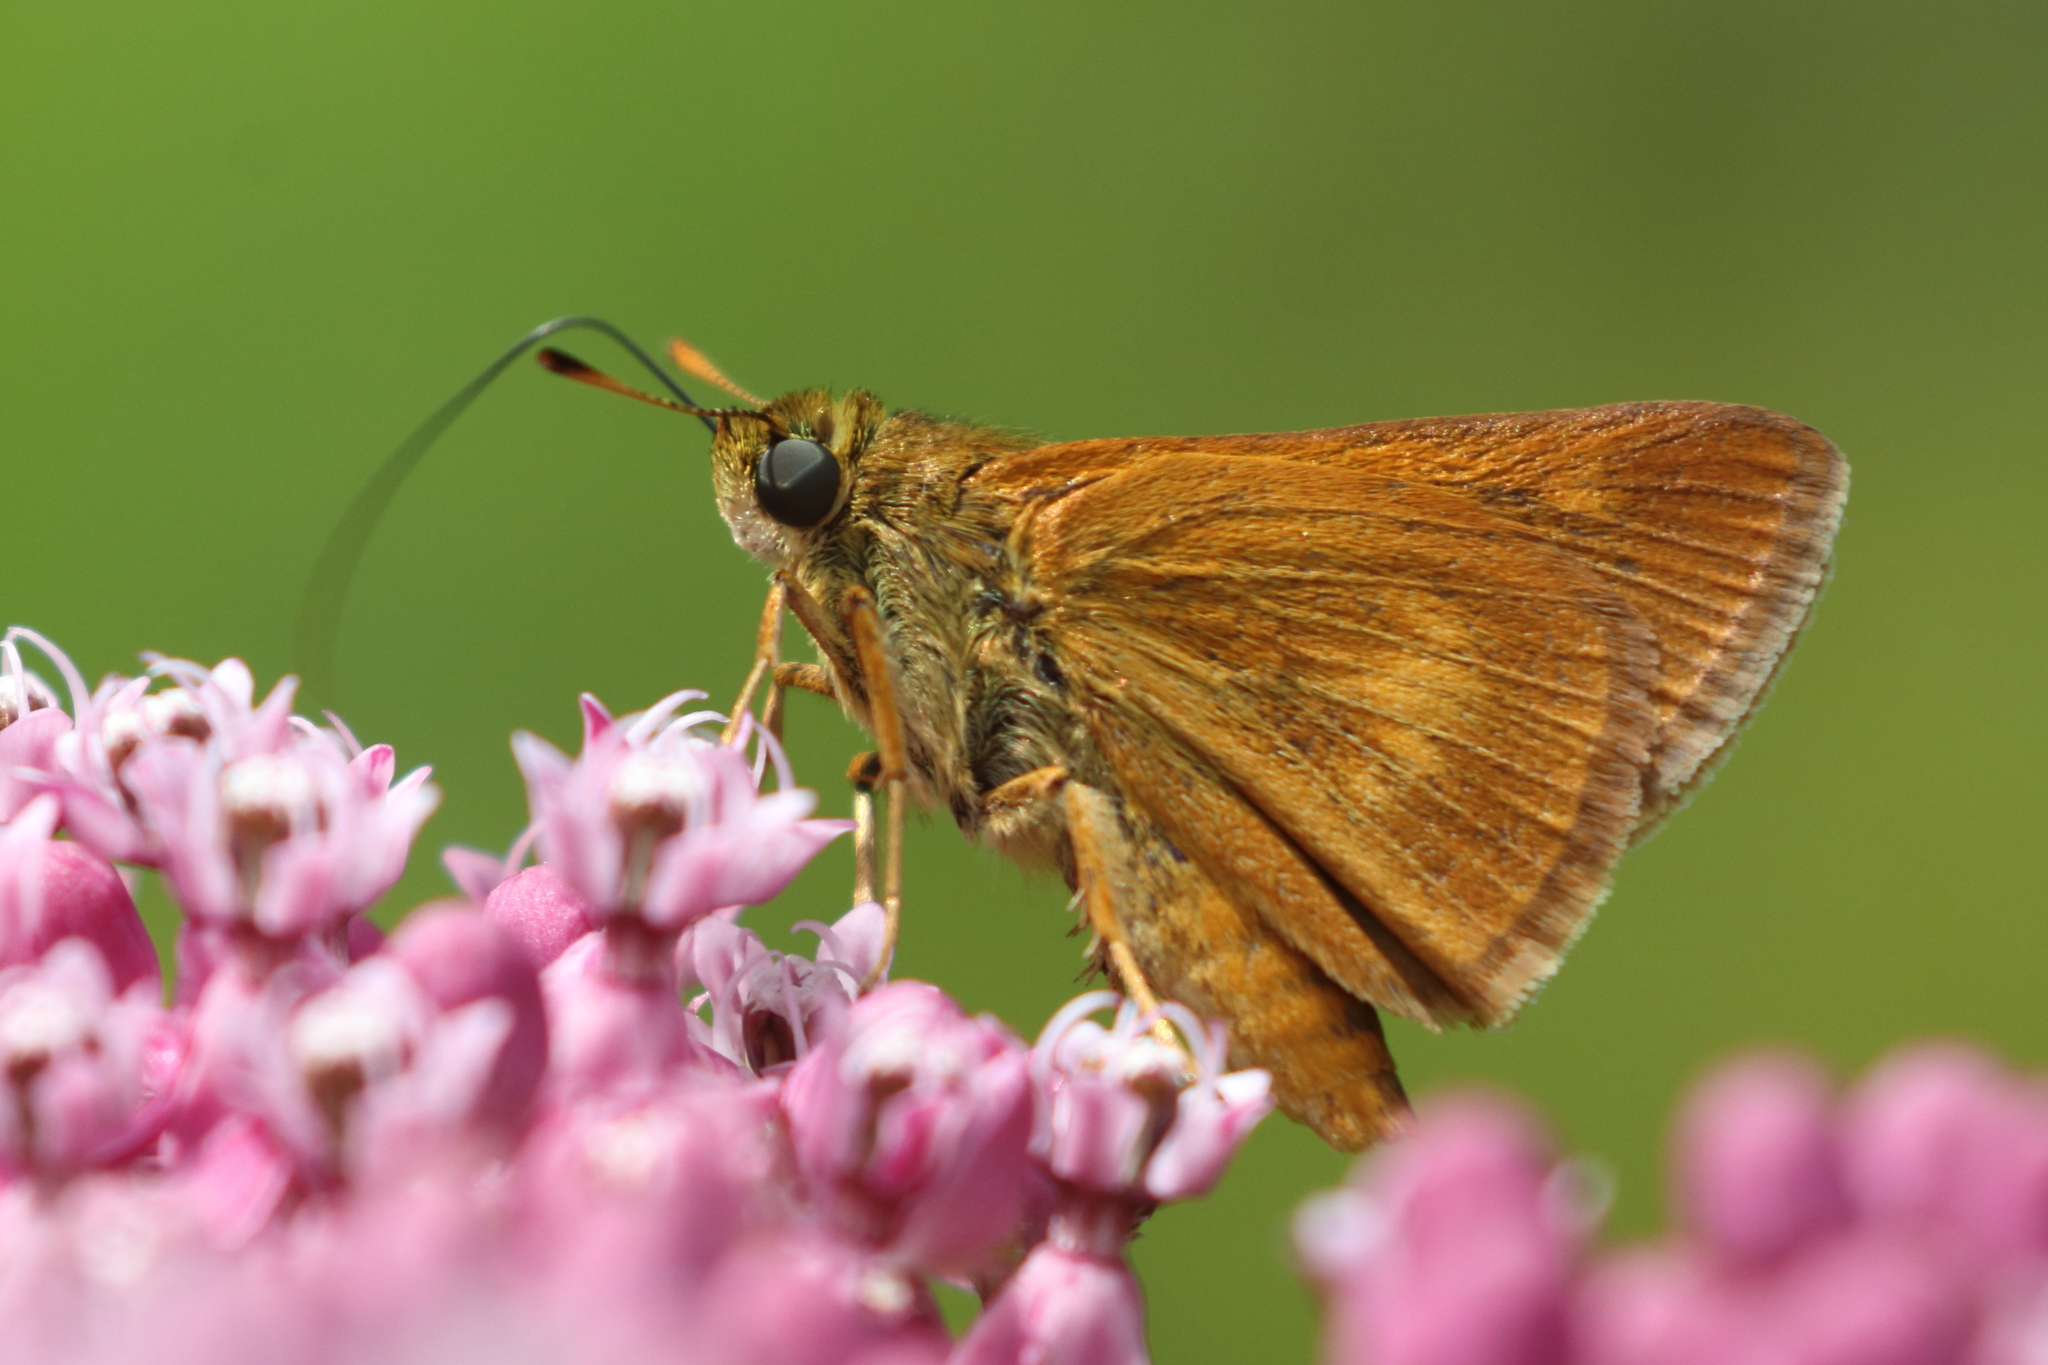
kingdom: Animalia
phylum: Arthropoda
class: Insecta
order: Lepidoptera
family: Hesperiidae
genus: Euphyes
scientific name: Euphyes conspicua
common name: Black dash
